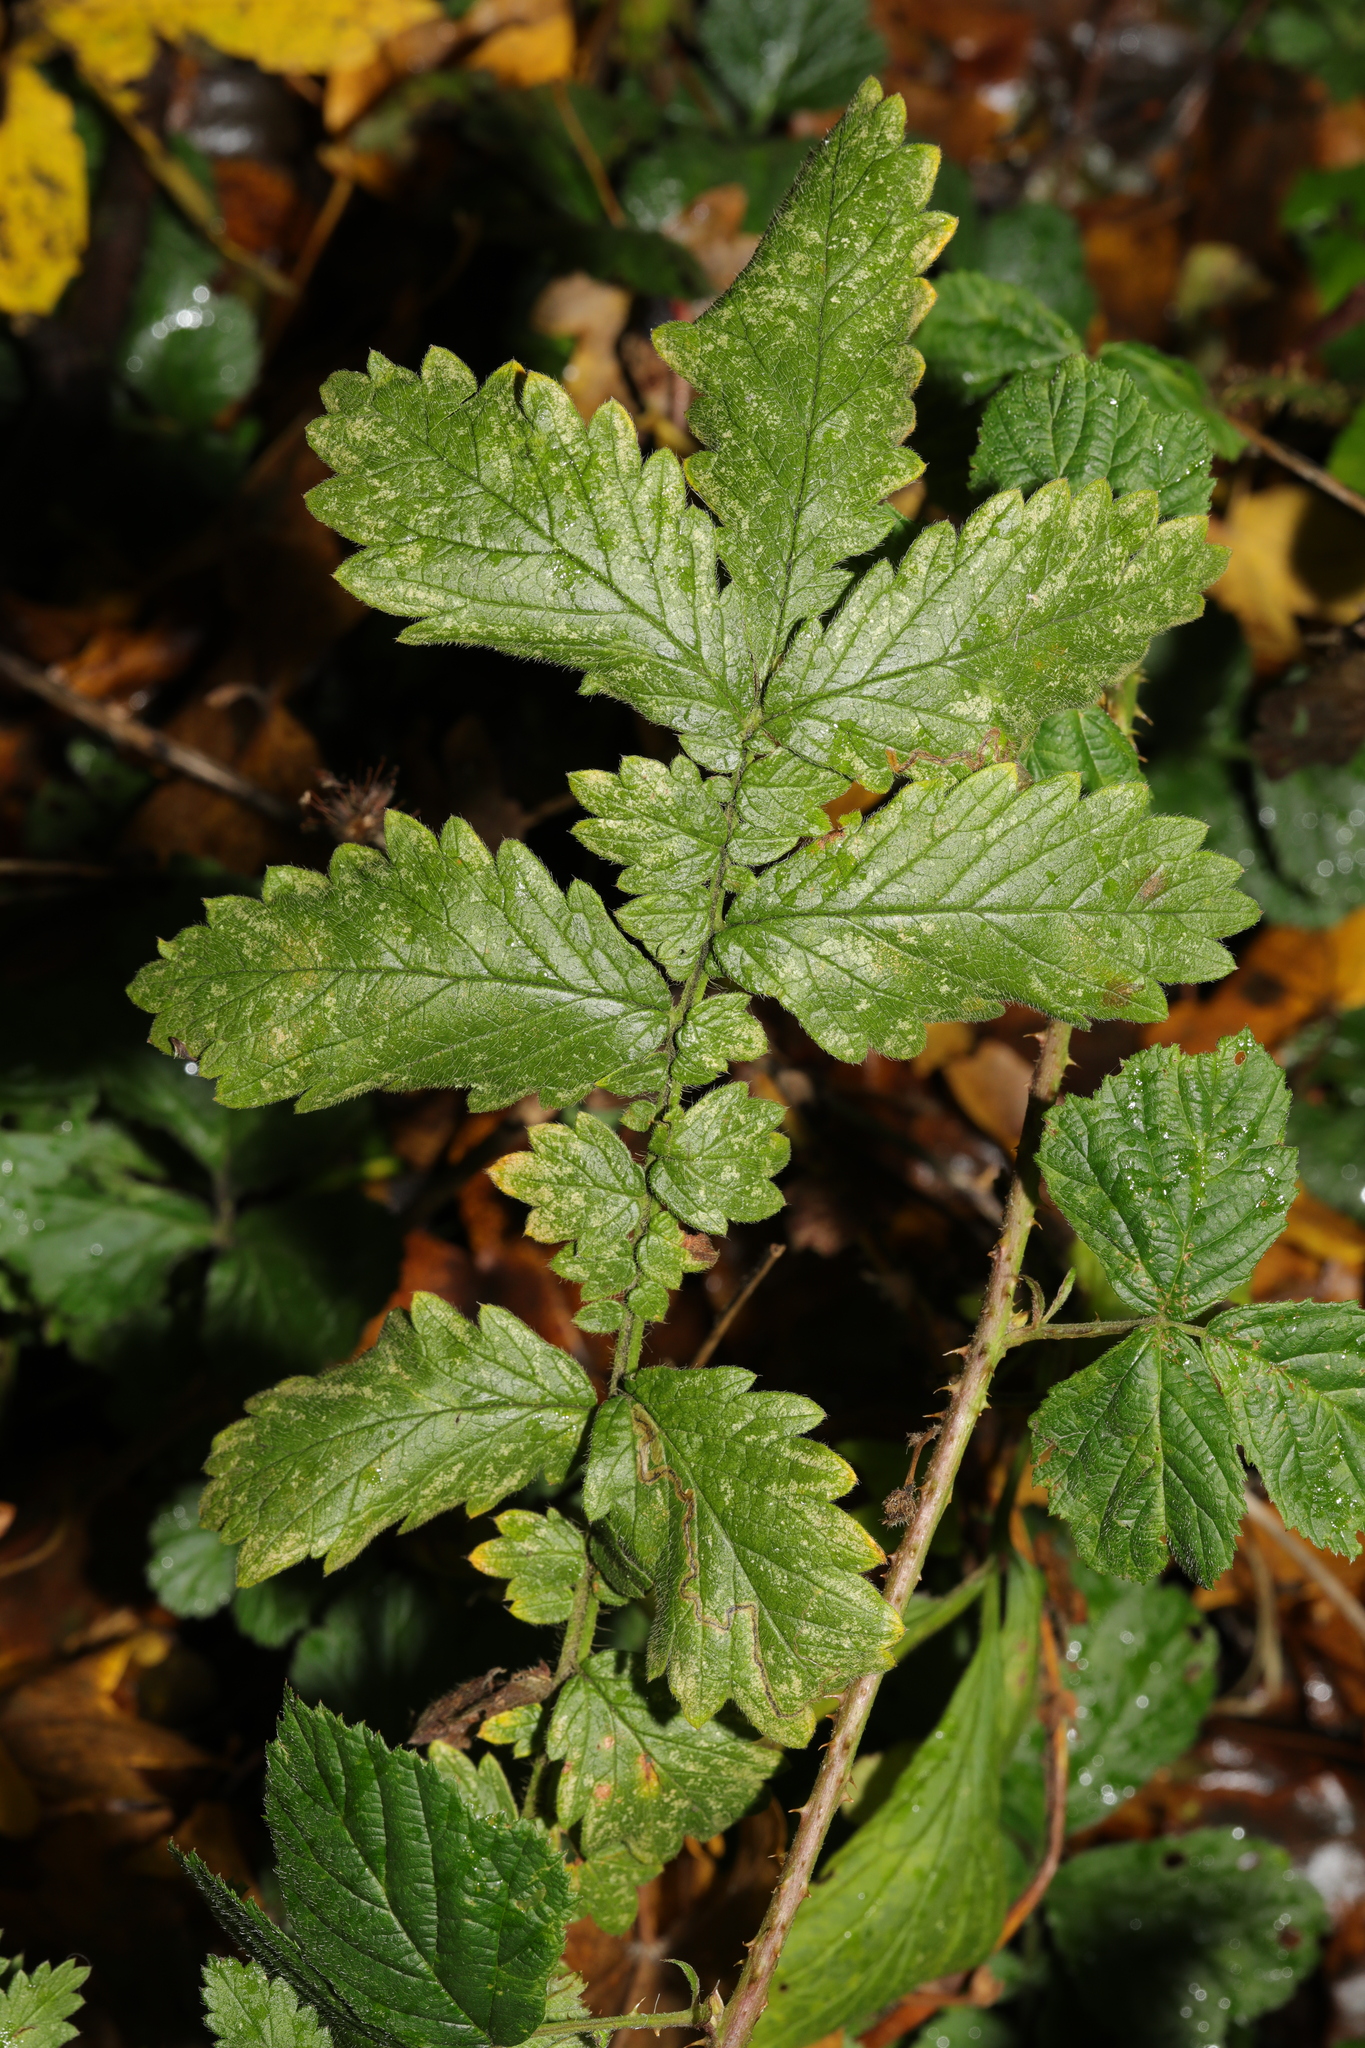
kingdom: Plantae
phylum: Tracheophyta
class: Magnoliopsida
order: Rosales
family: Rosaceae
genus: Agrimonia
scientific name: Agrimonia eupatoria
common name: Agrimony
